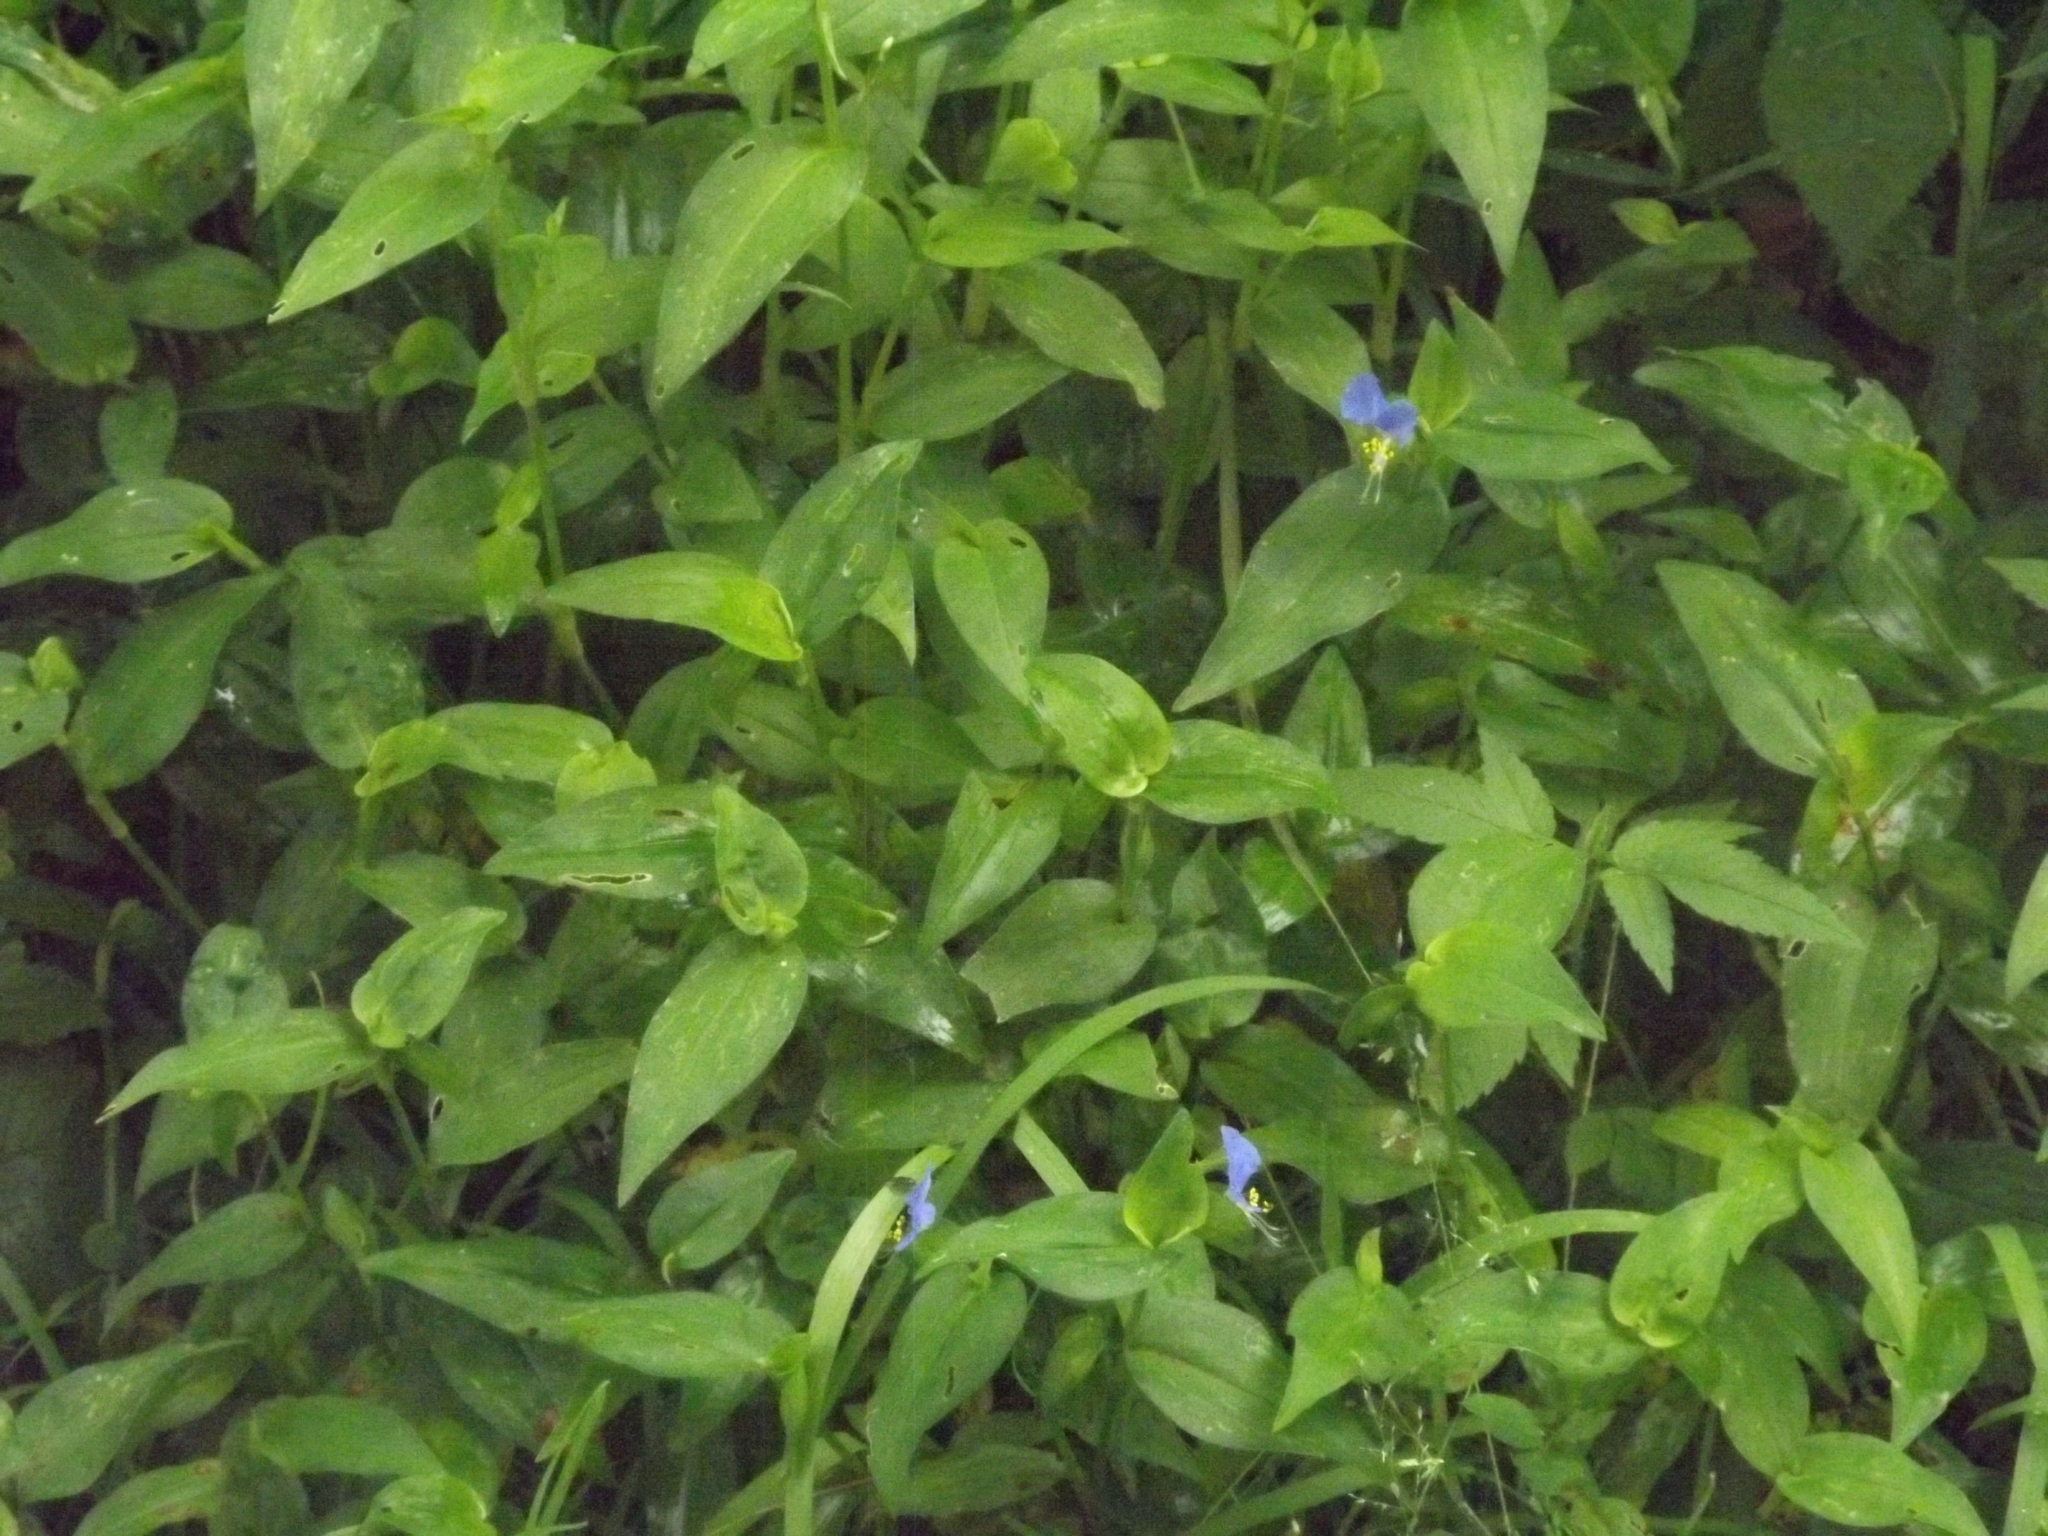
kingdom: Plantae
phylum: Tracheophyta
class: Liliopsida
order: Commelinales
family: Commelinaceae
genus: Commelina
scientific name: Commelina communis
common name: Asiatic dayflower
